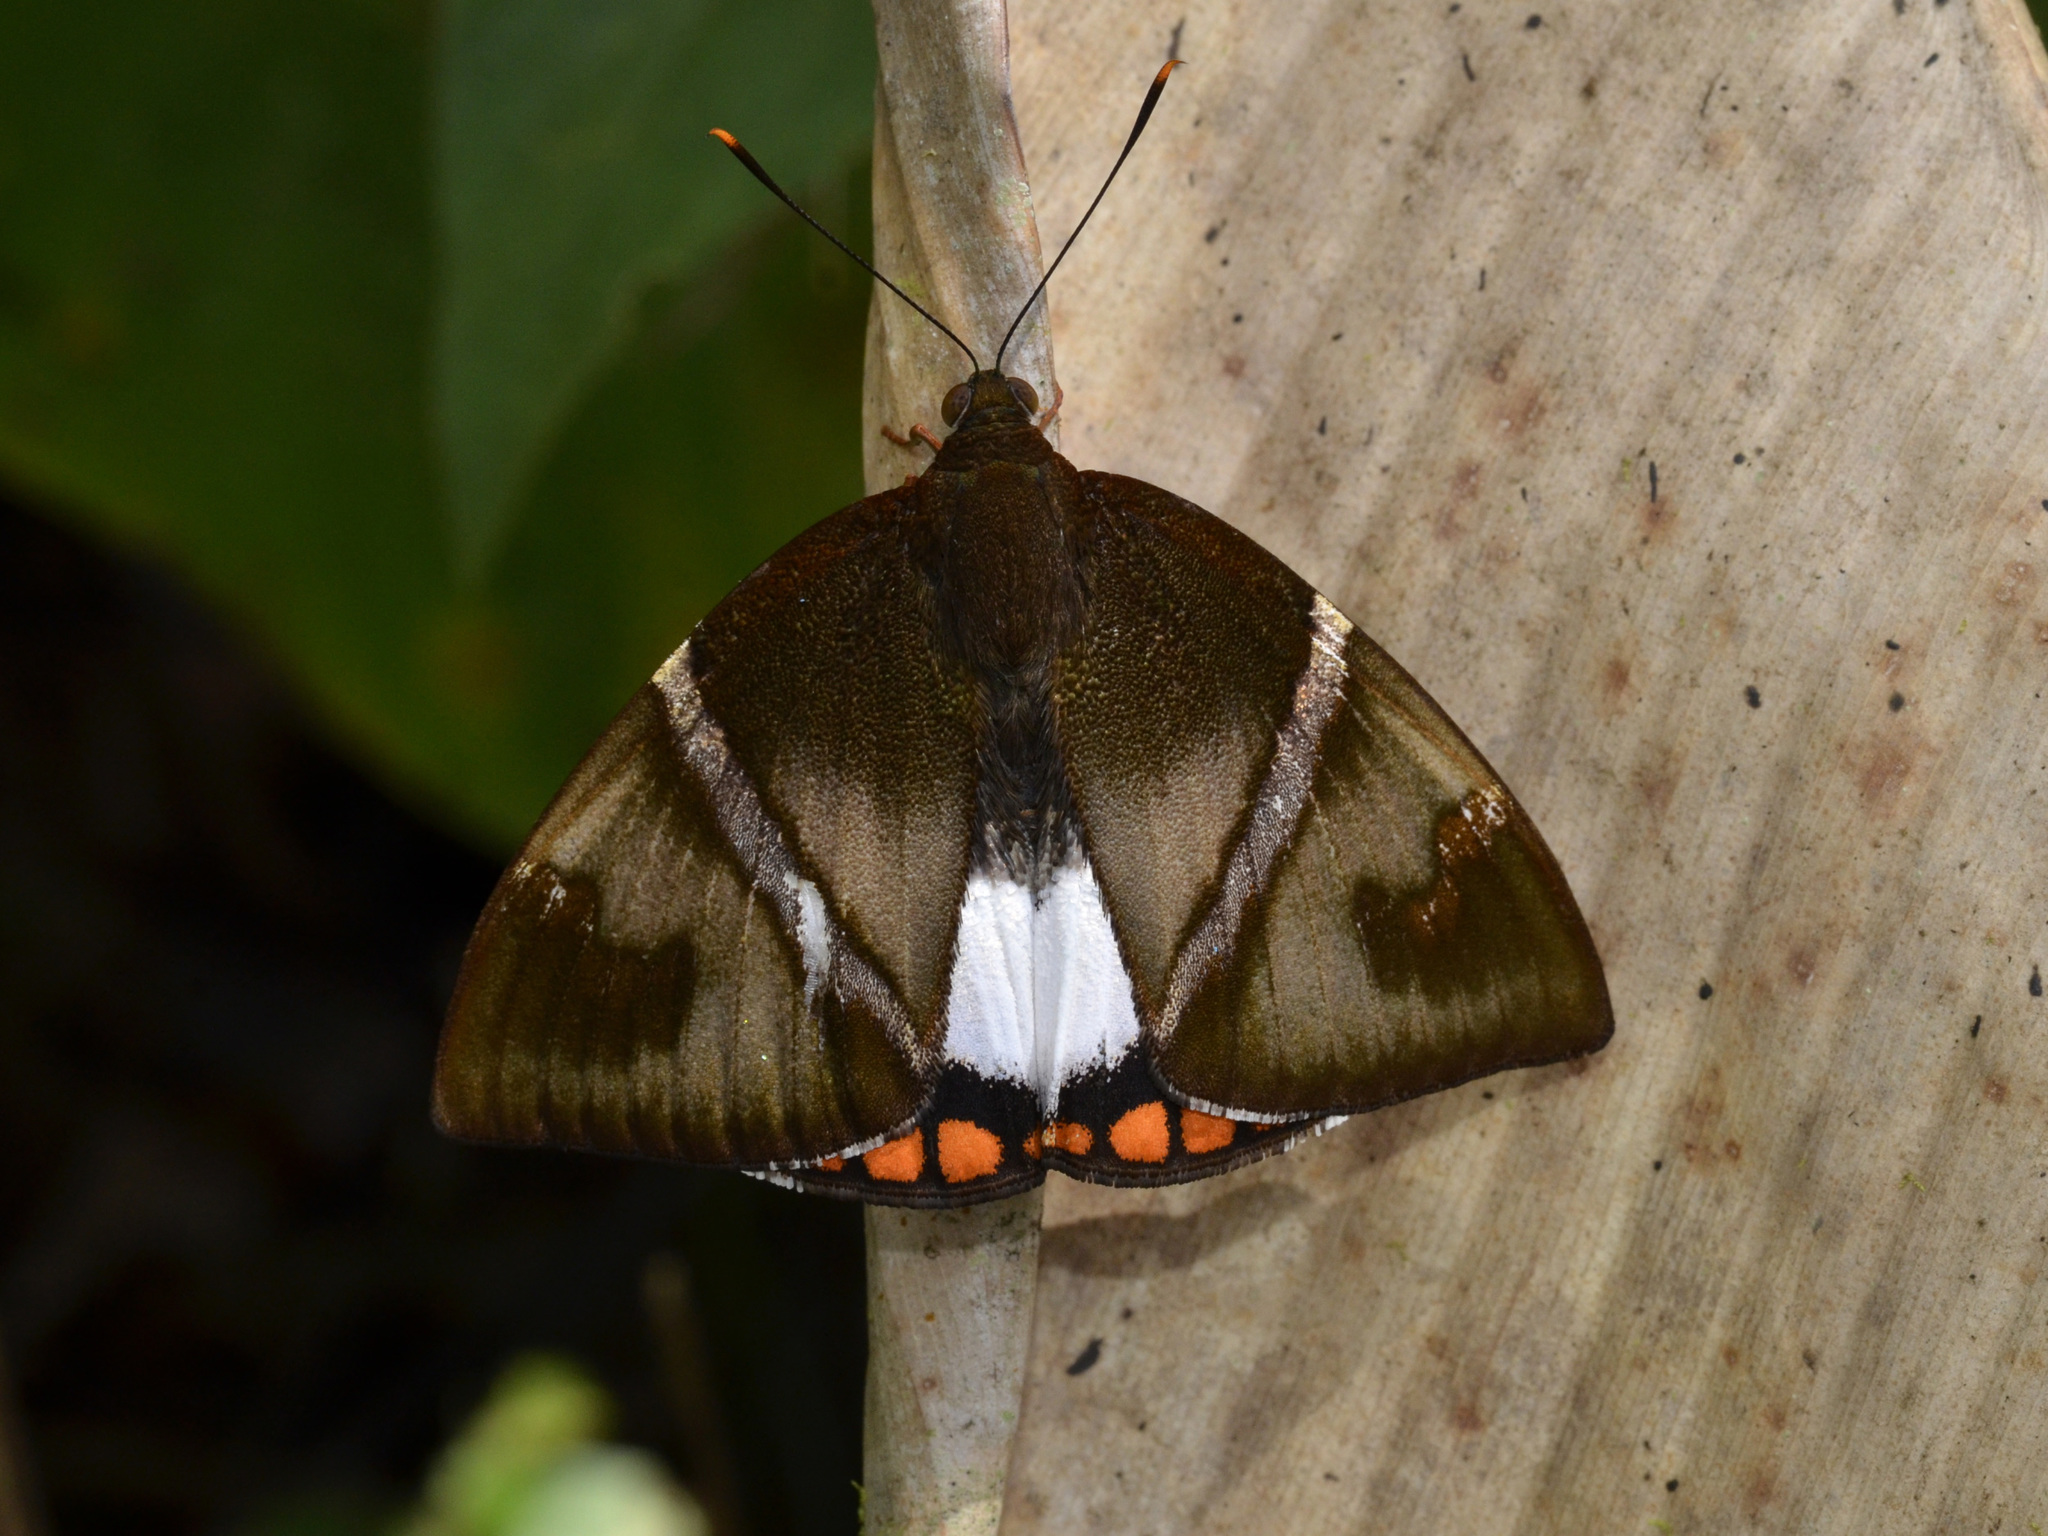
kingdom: Animalia
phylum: Arthropoda
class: Insecta
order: Lepidoptera
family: Castniidae
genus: Castnia
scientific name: Castnia licus
